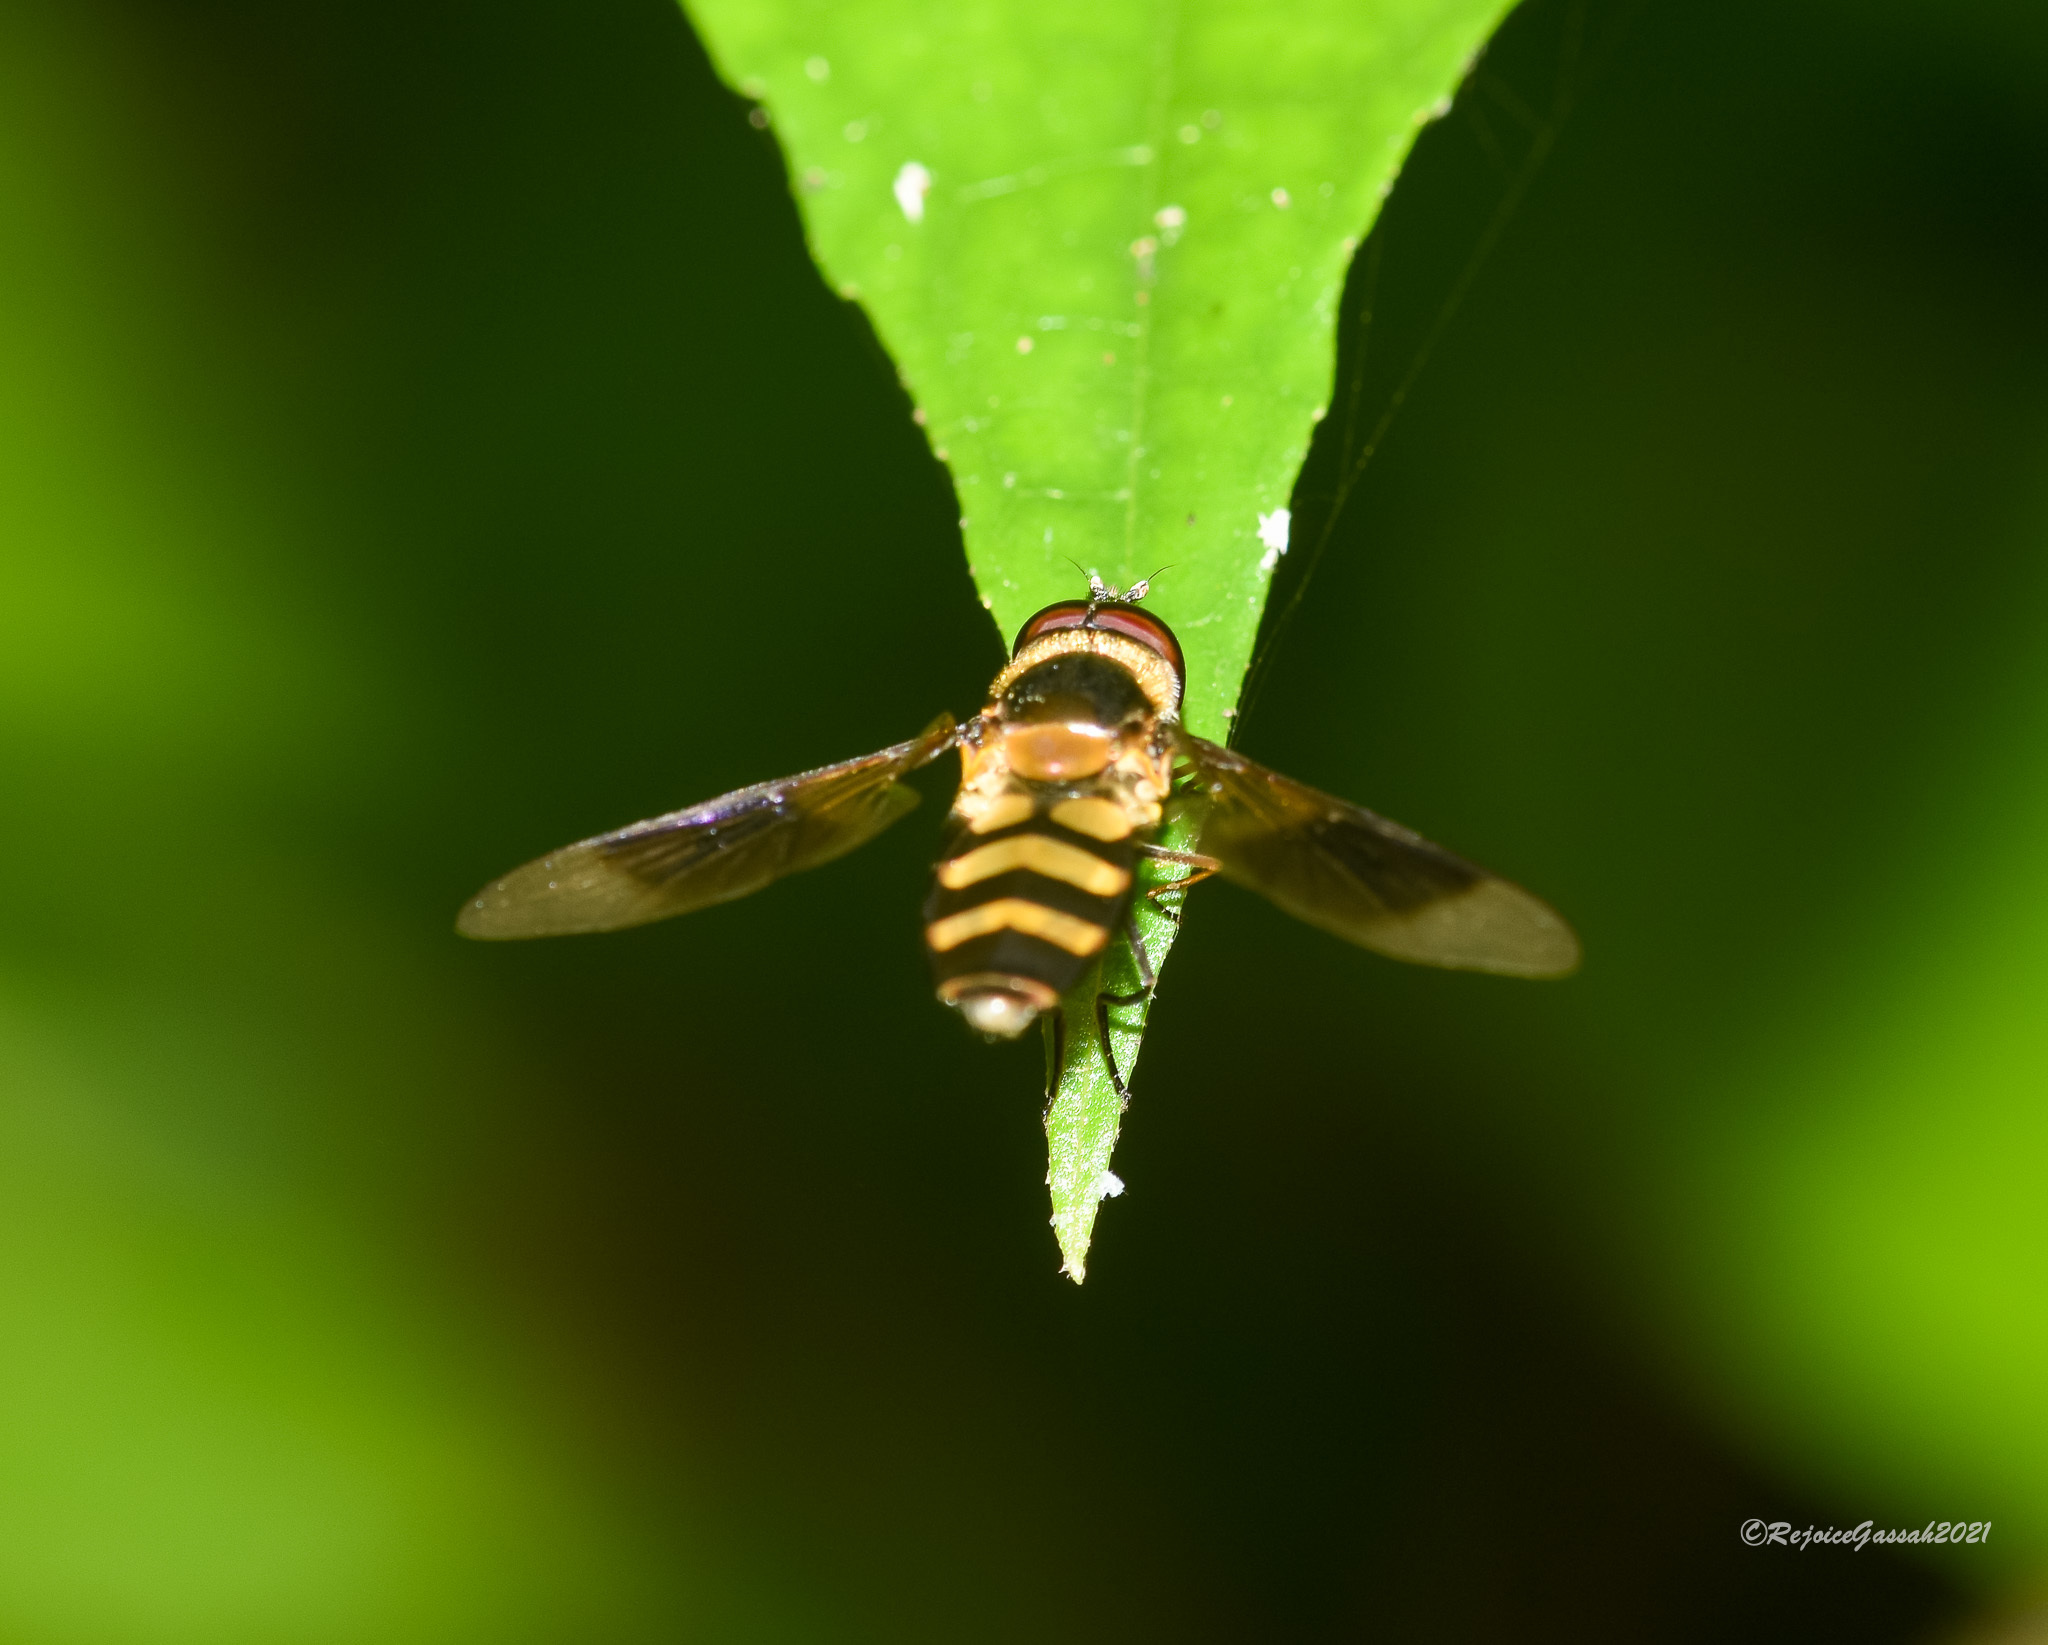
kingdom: Animalia
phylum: Arthropoda
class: Insecta
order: Diptera
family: Syrphidae
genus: Dideopsis
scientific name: Dideopsis aegrota
